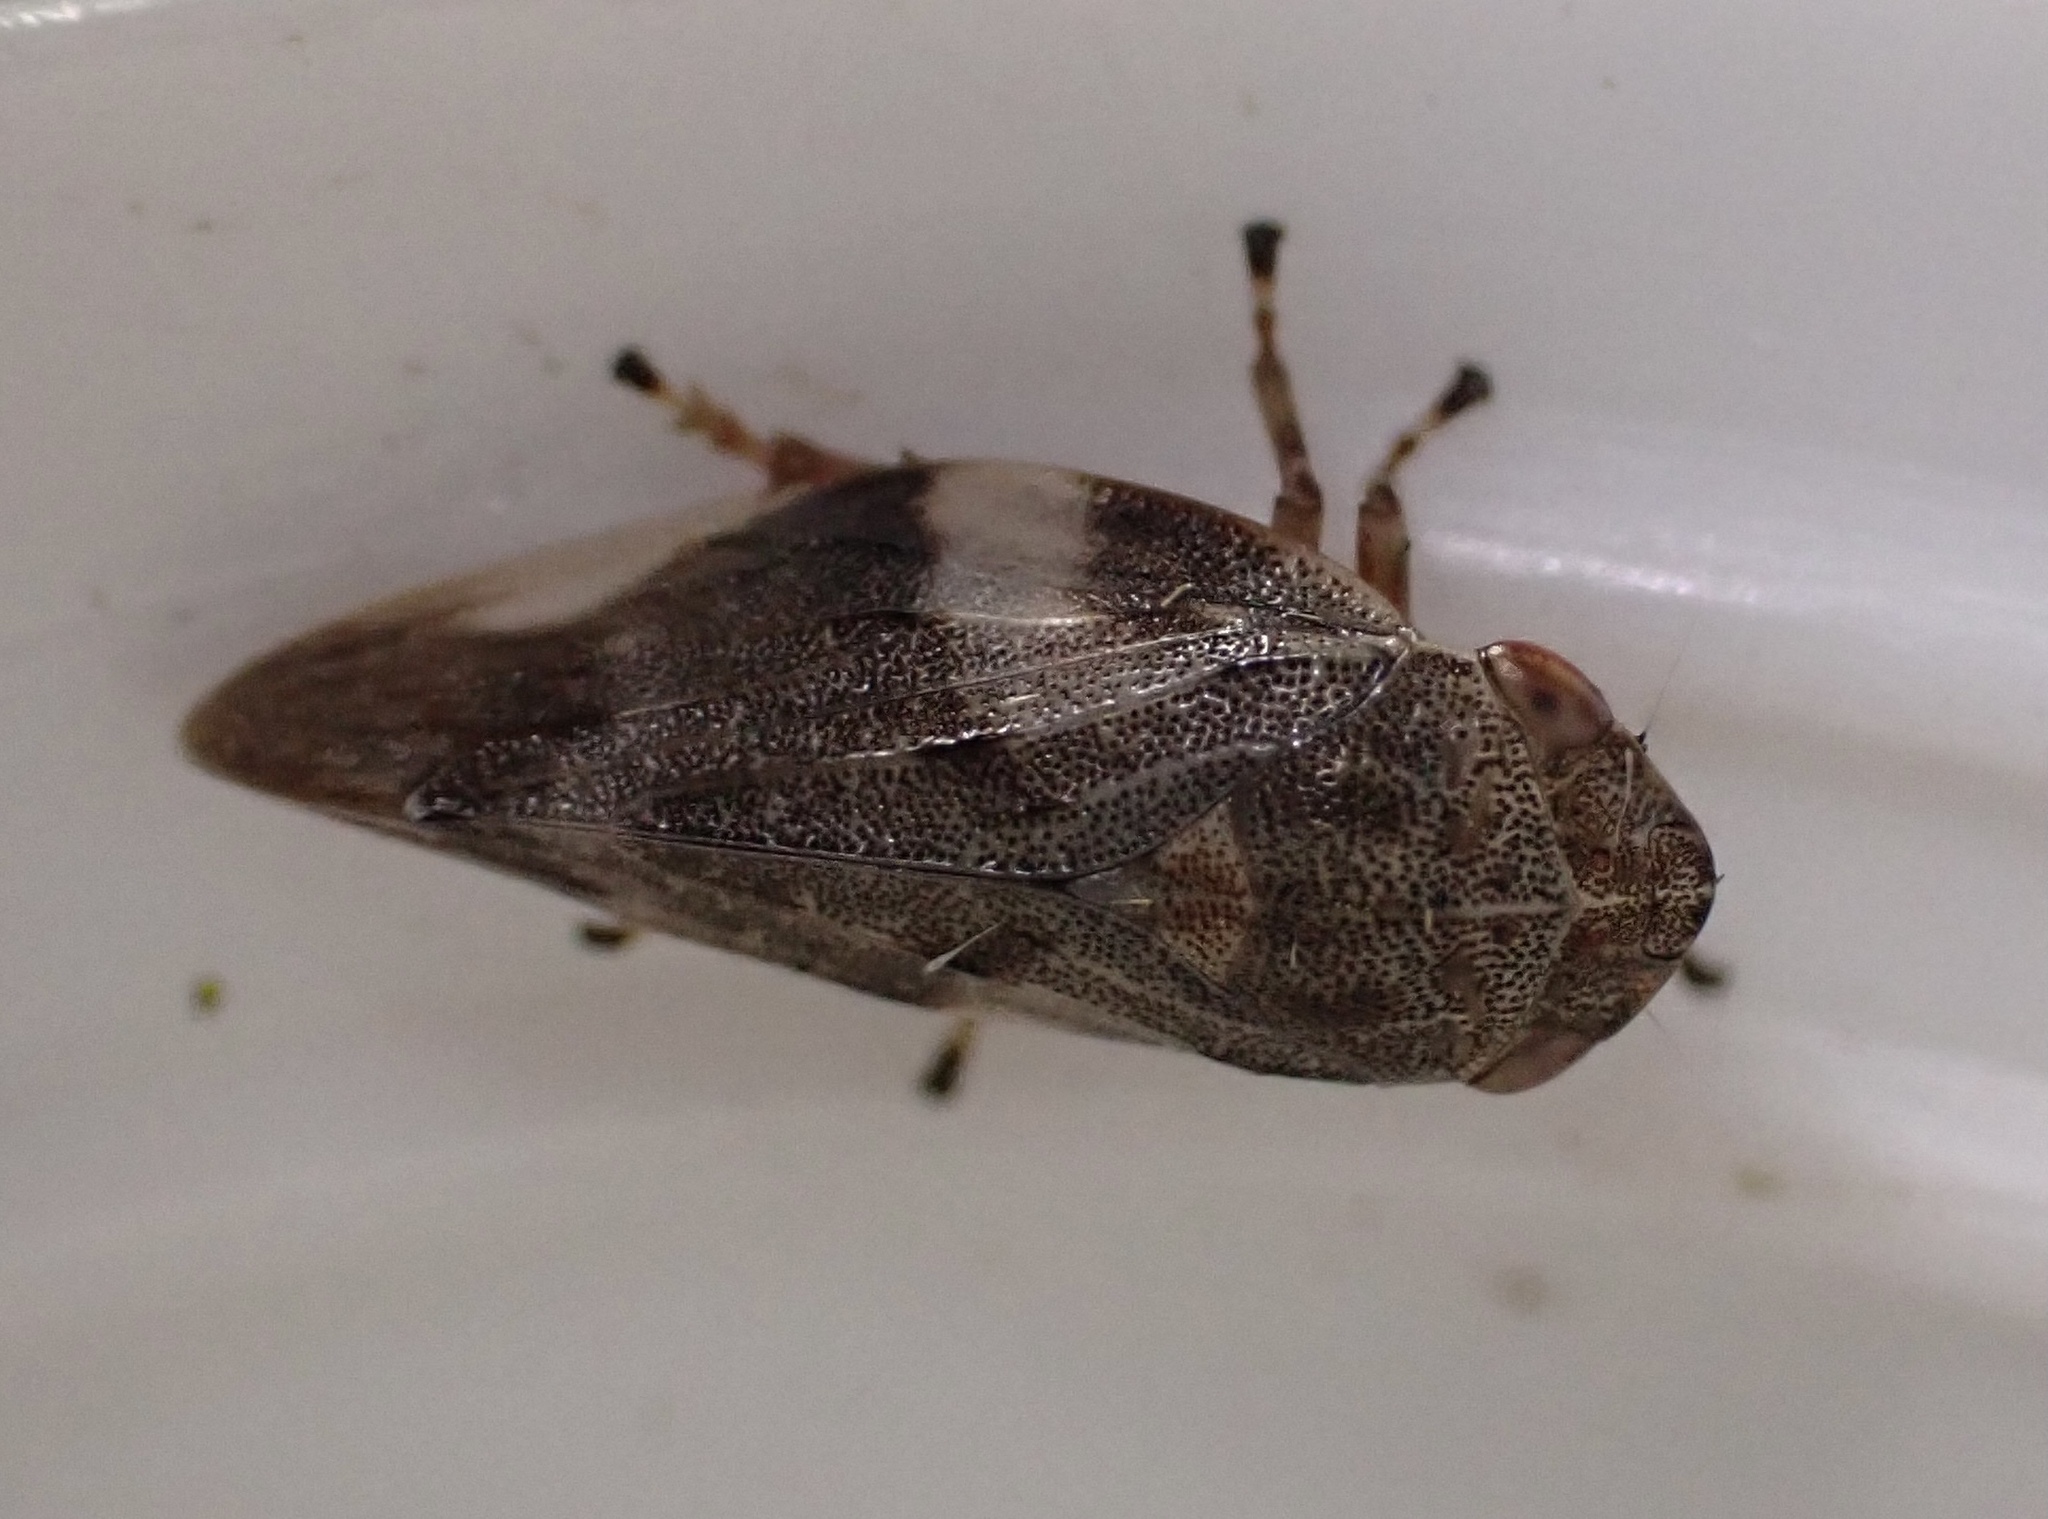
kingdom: Animalia
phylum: Arthropoda
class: Insecta
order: Hemiptera
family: Aphrophoridae
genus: Aphrophora
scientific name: Aphrophora alni
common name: European alder spittlebug
